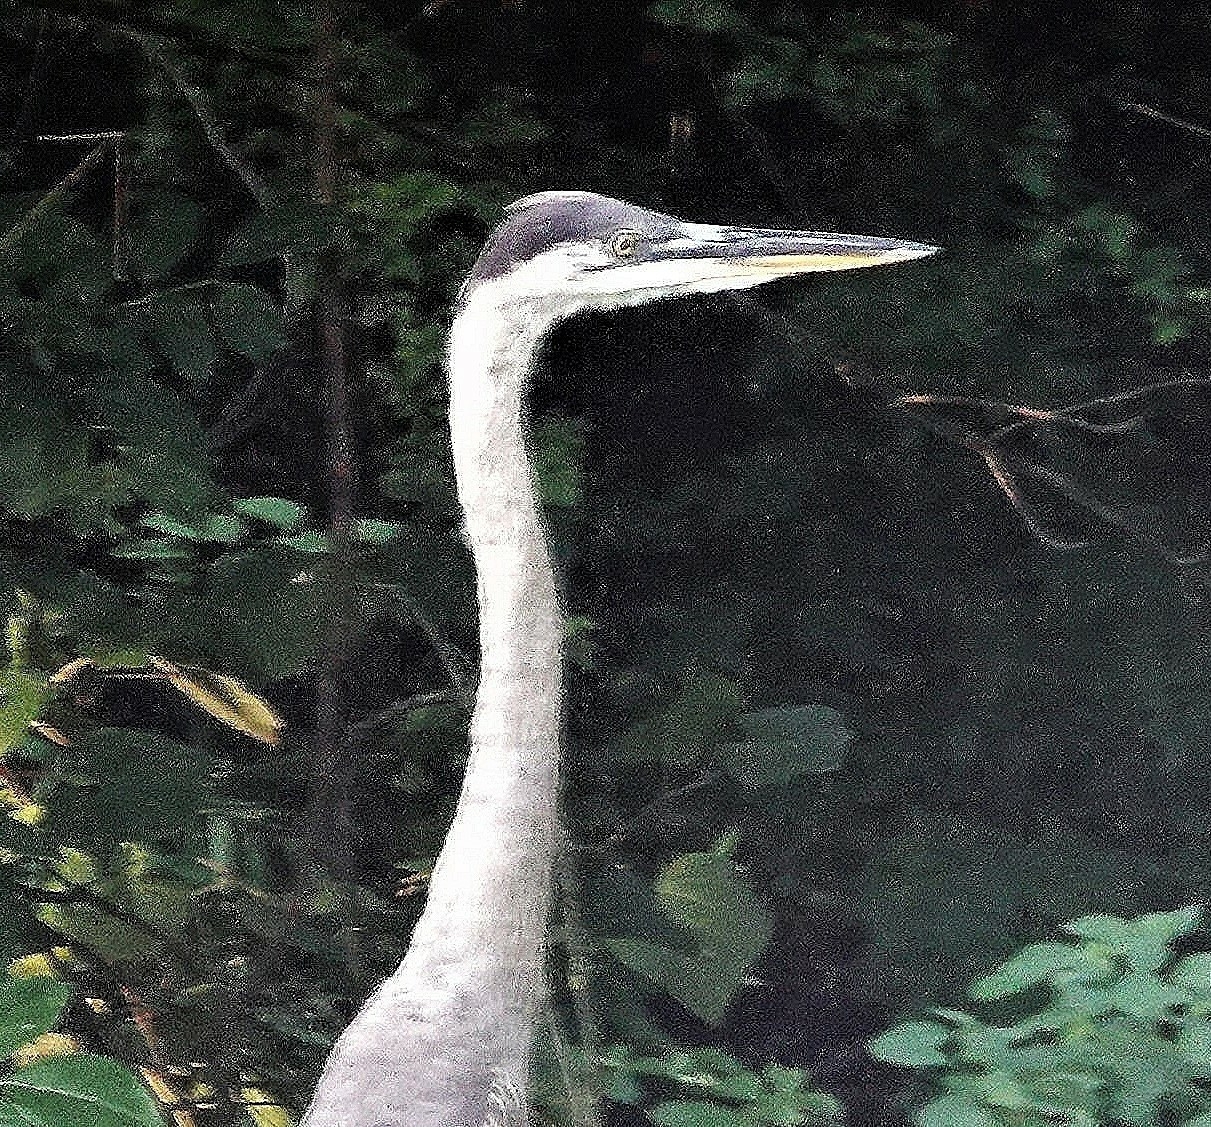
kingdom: Animalia
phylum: Chordata
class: Aves
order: Pelecaniformes
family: Ardeidae
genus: Ardea
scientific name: Ardea herodias
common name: Great blue heron
